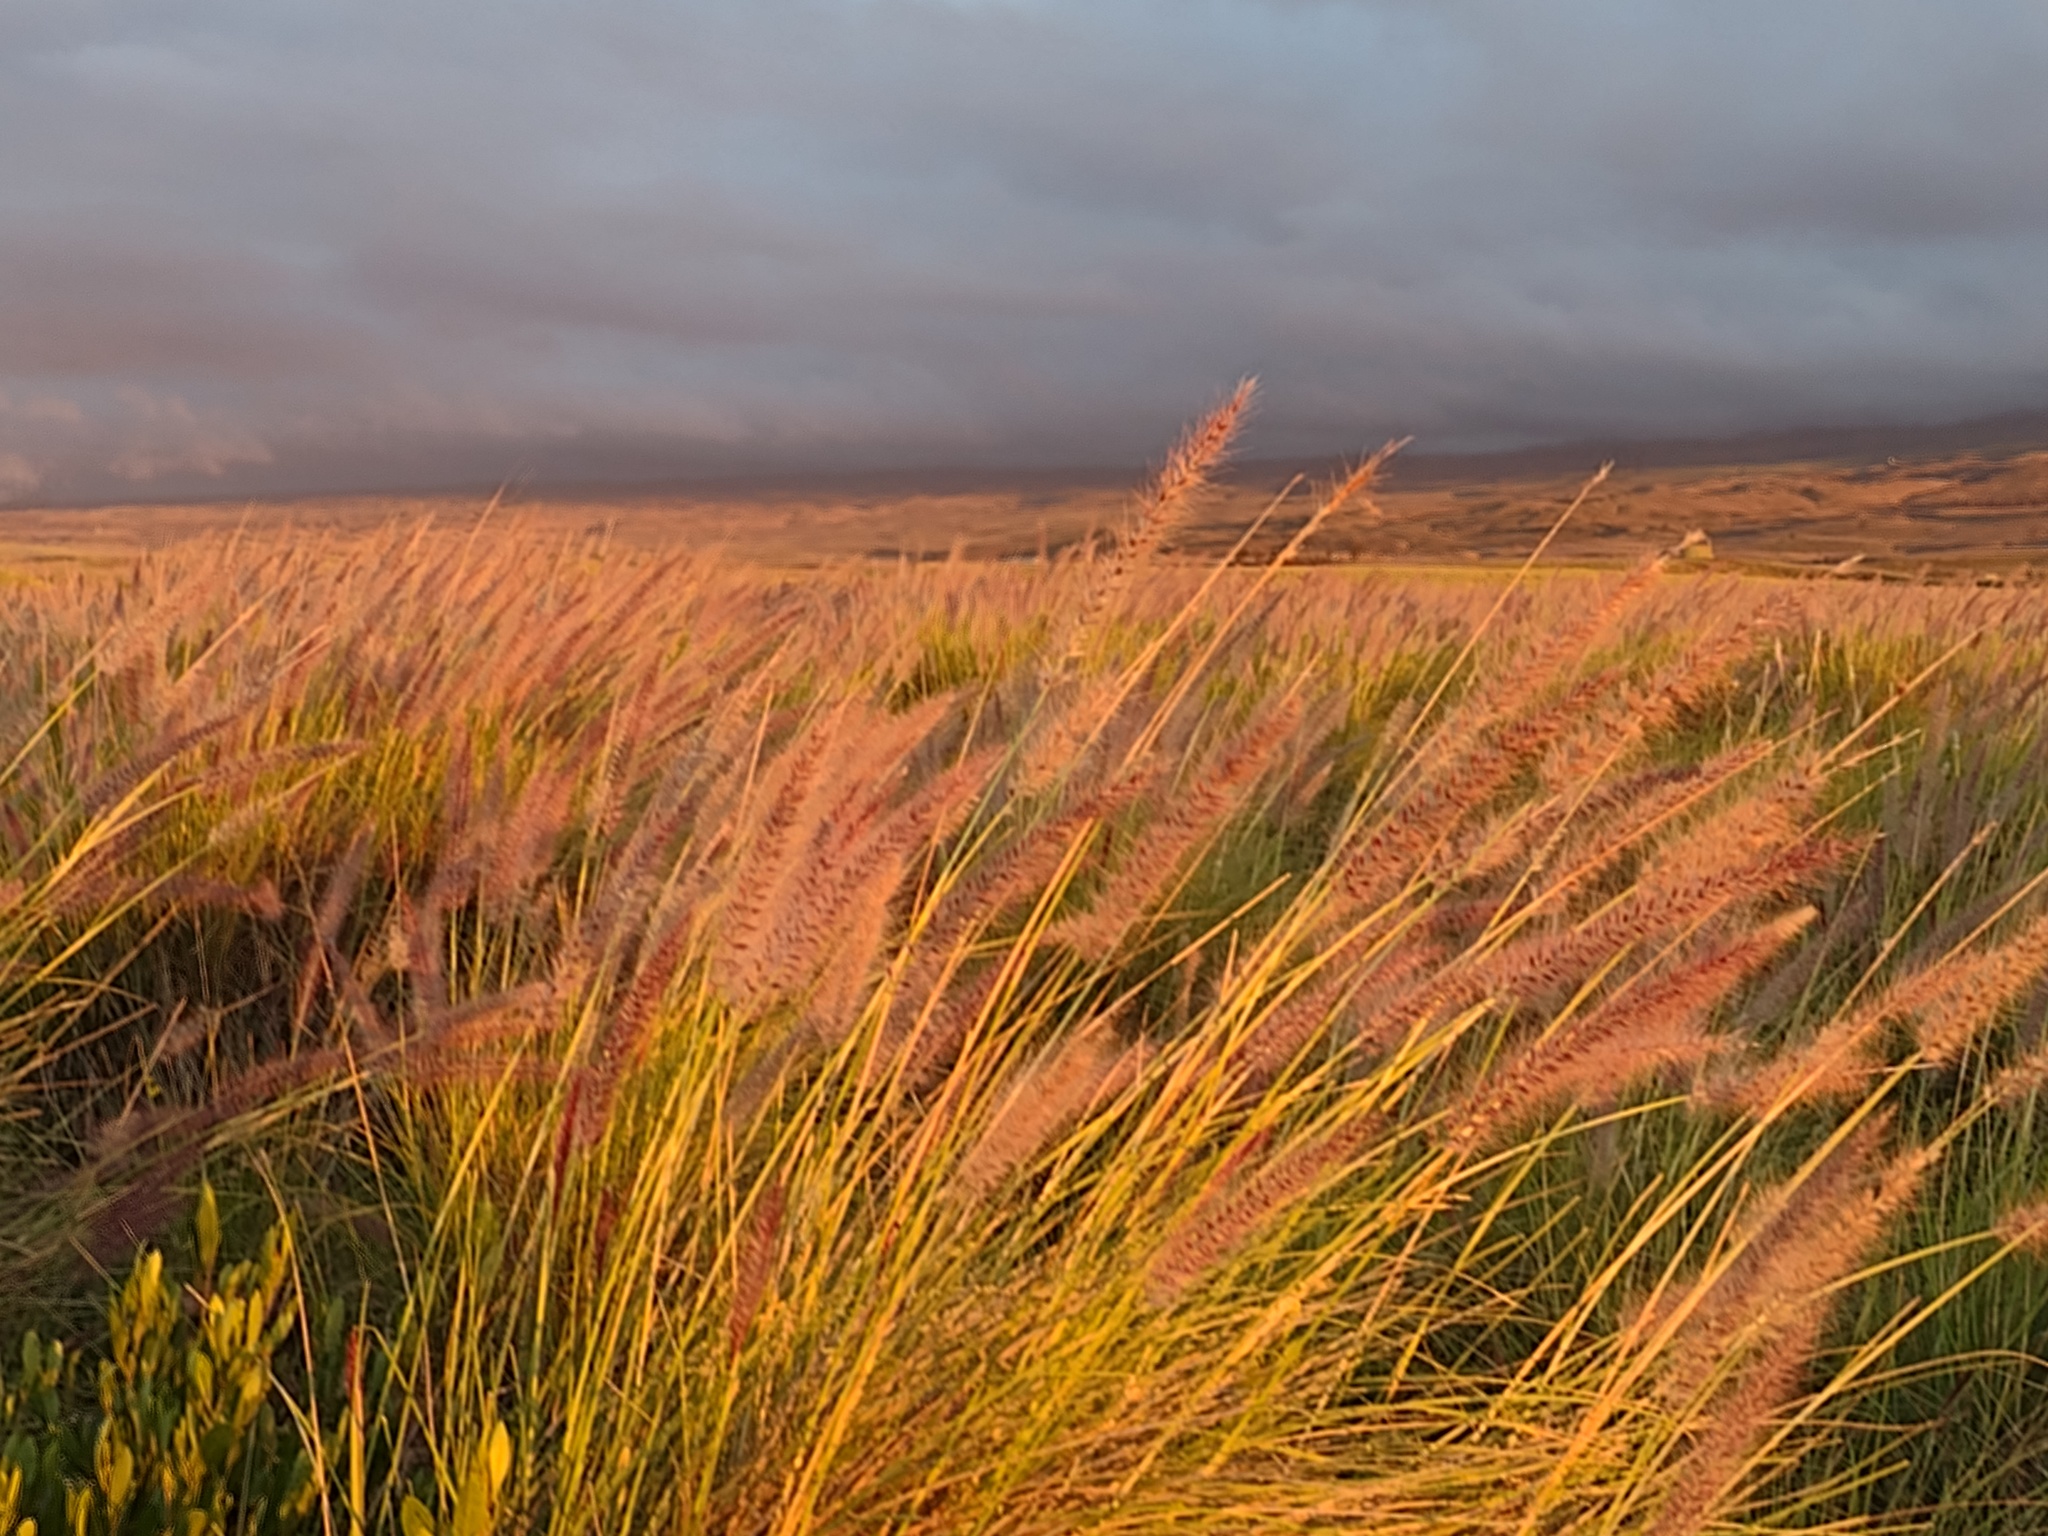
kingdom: Plantae
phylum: Tracheophyta
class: Liliopsida
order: Poales
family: Poaceae
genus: Cenchrus
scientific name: Cenchrus setaceus
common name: Crimson fountaingrass
